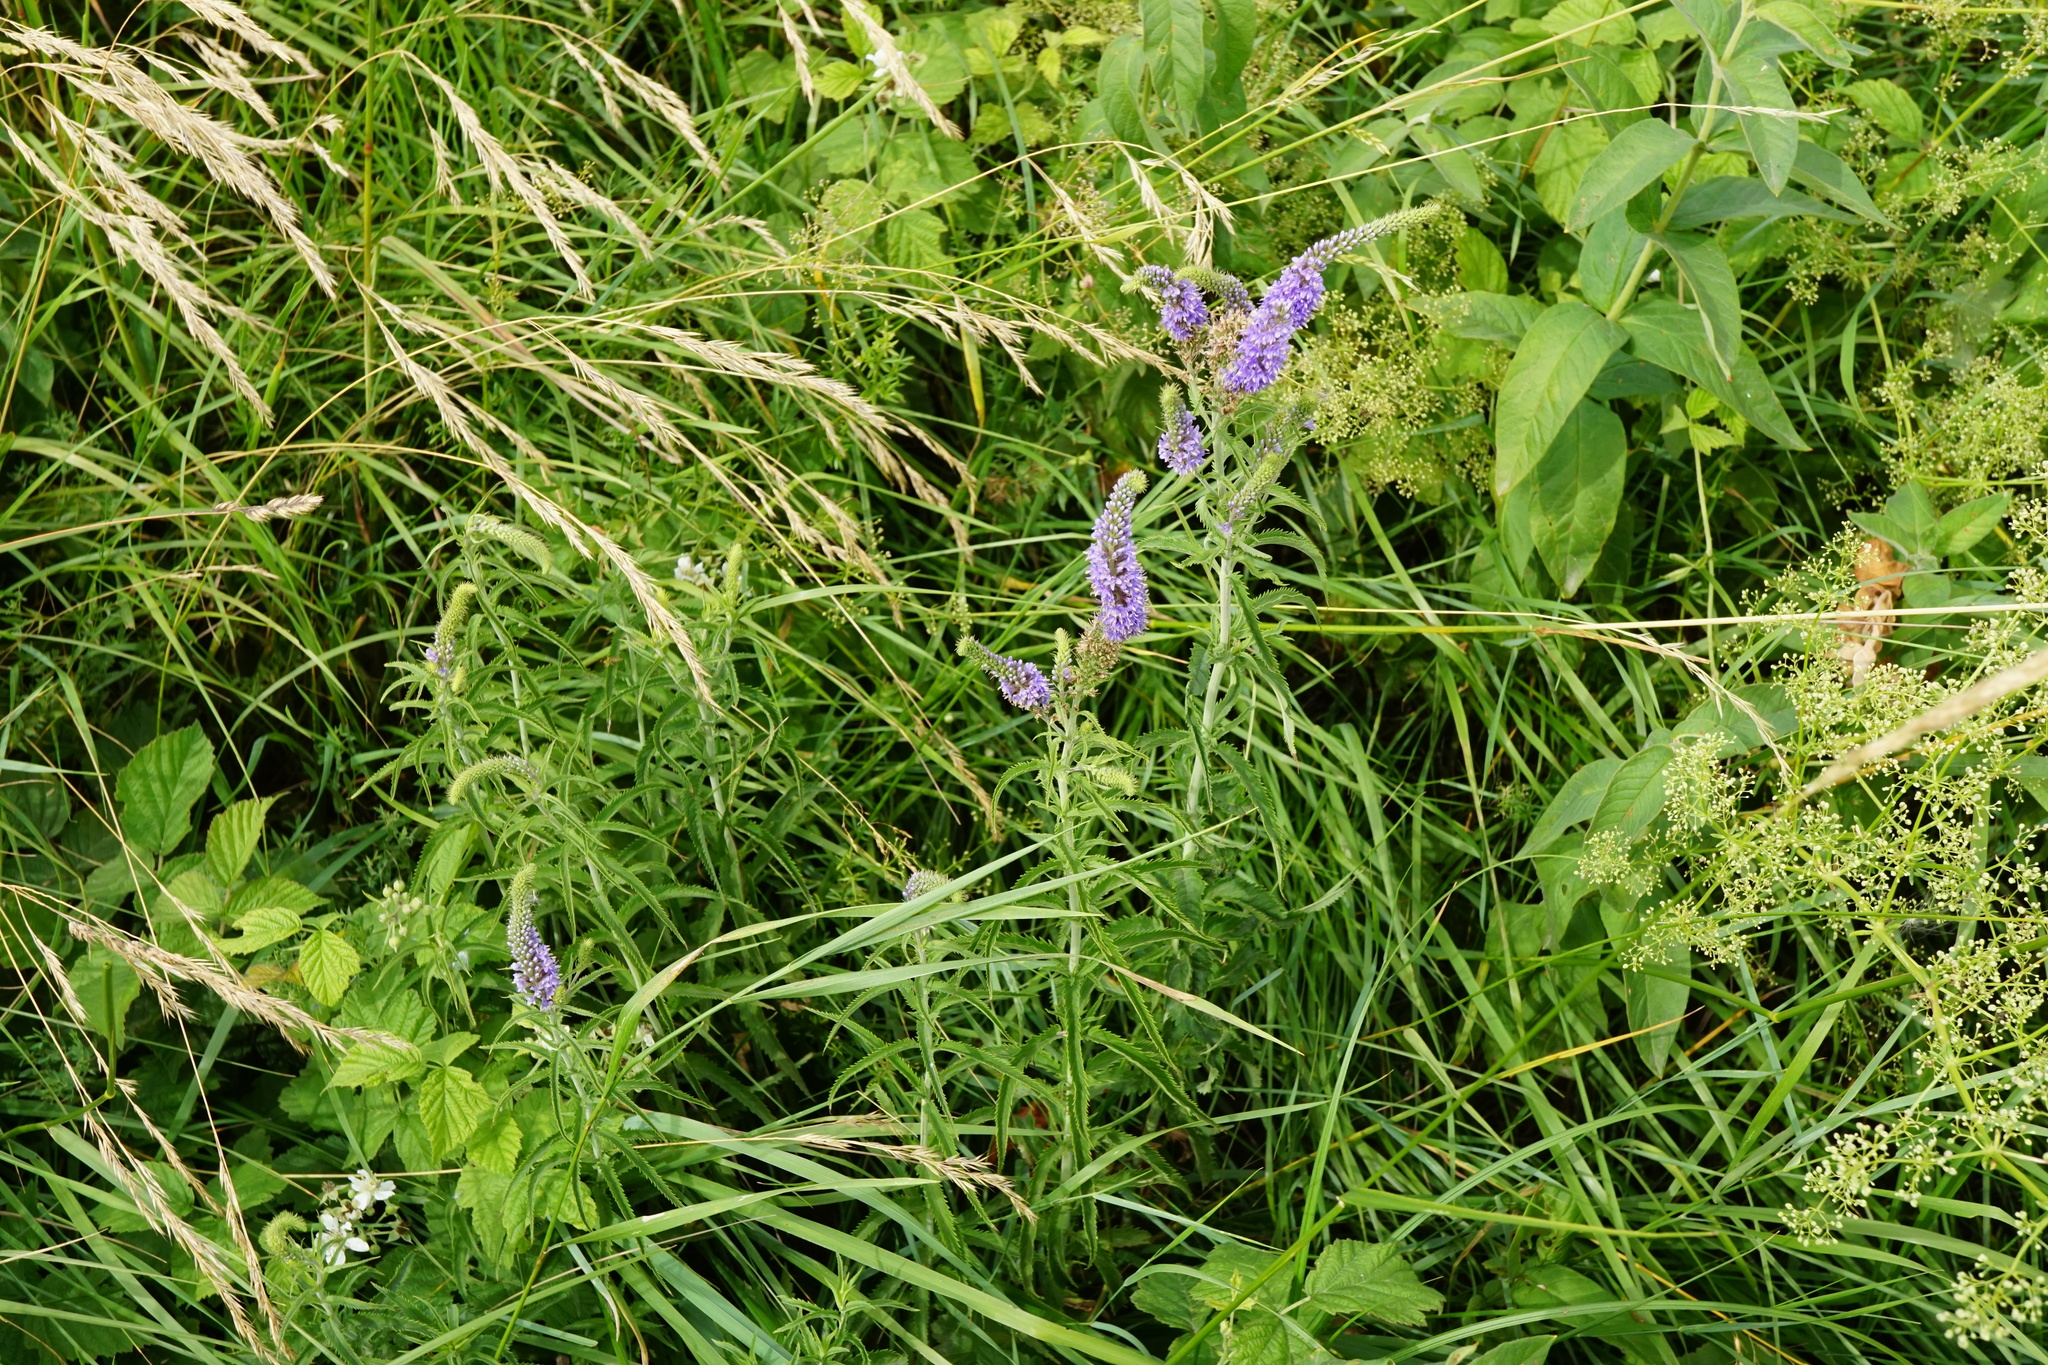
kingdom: Plantae
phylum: Tracheophyta
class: Magnoliopsida
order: Lamiales
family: Plantaginaceae
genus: Veronica
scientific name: Veronica longifolia
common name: Garden speedwell
